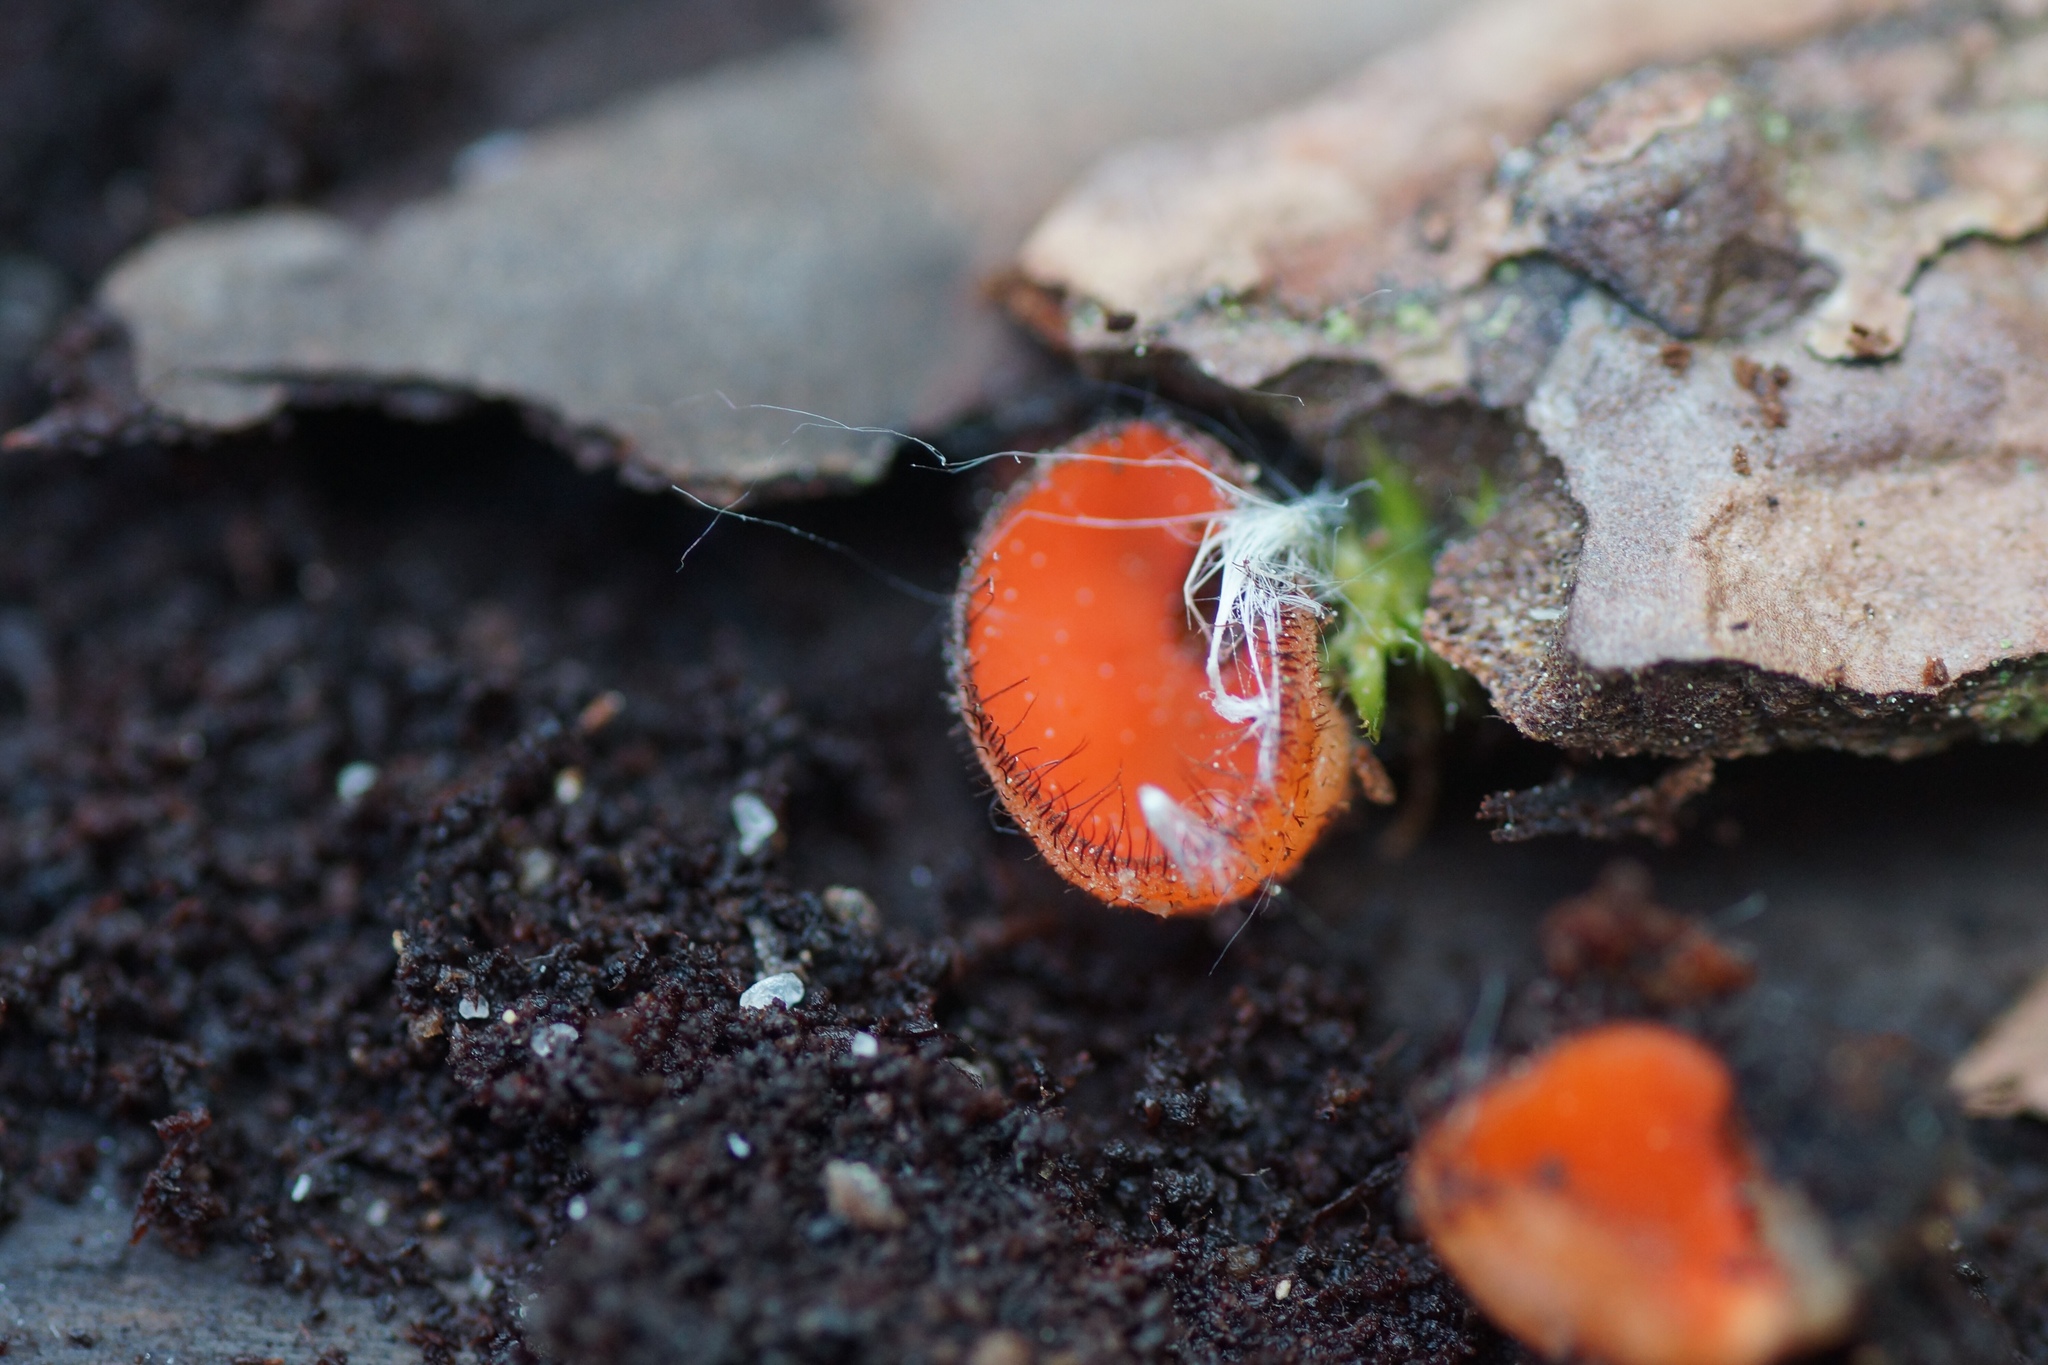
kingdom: Fungi
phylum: Ascomycota
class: Pezizomycetes
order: Pezizales
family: Pyronemataceae
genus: Scutellinia
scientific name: Scutellinia
